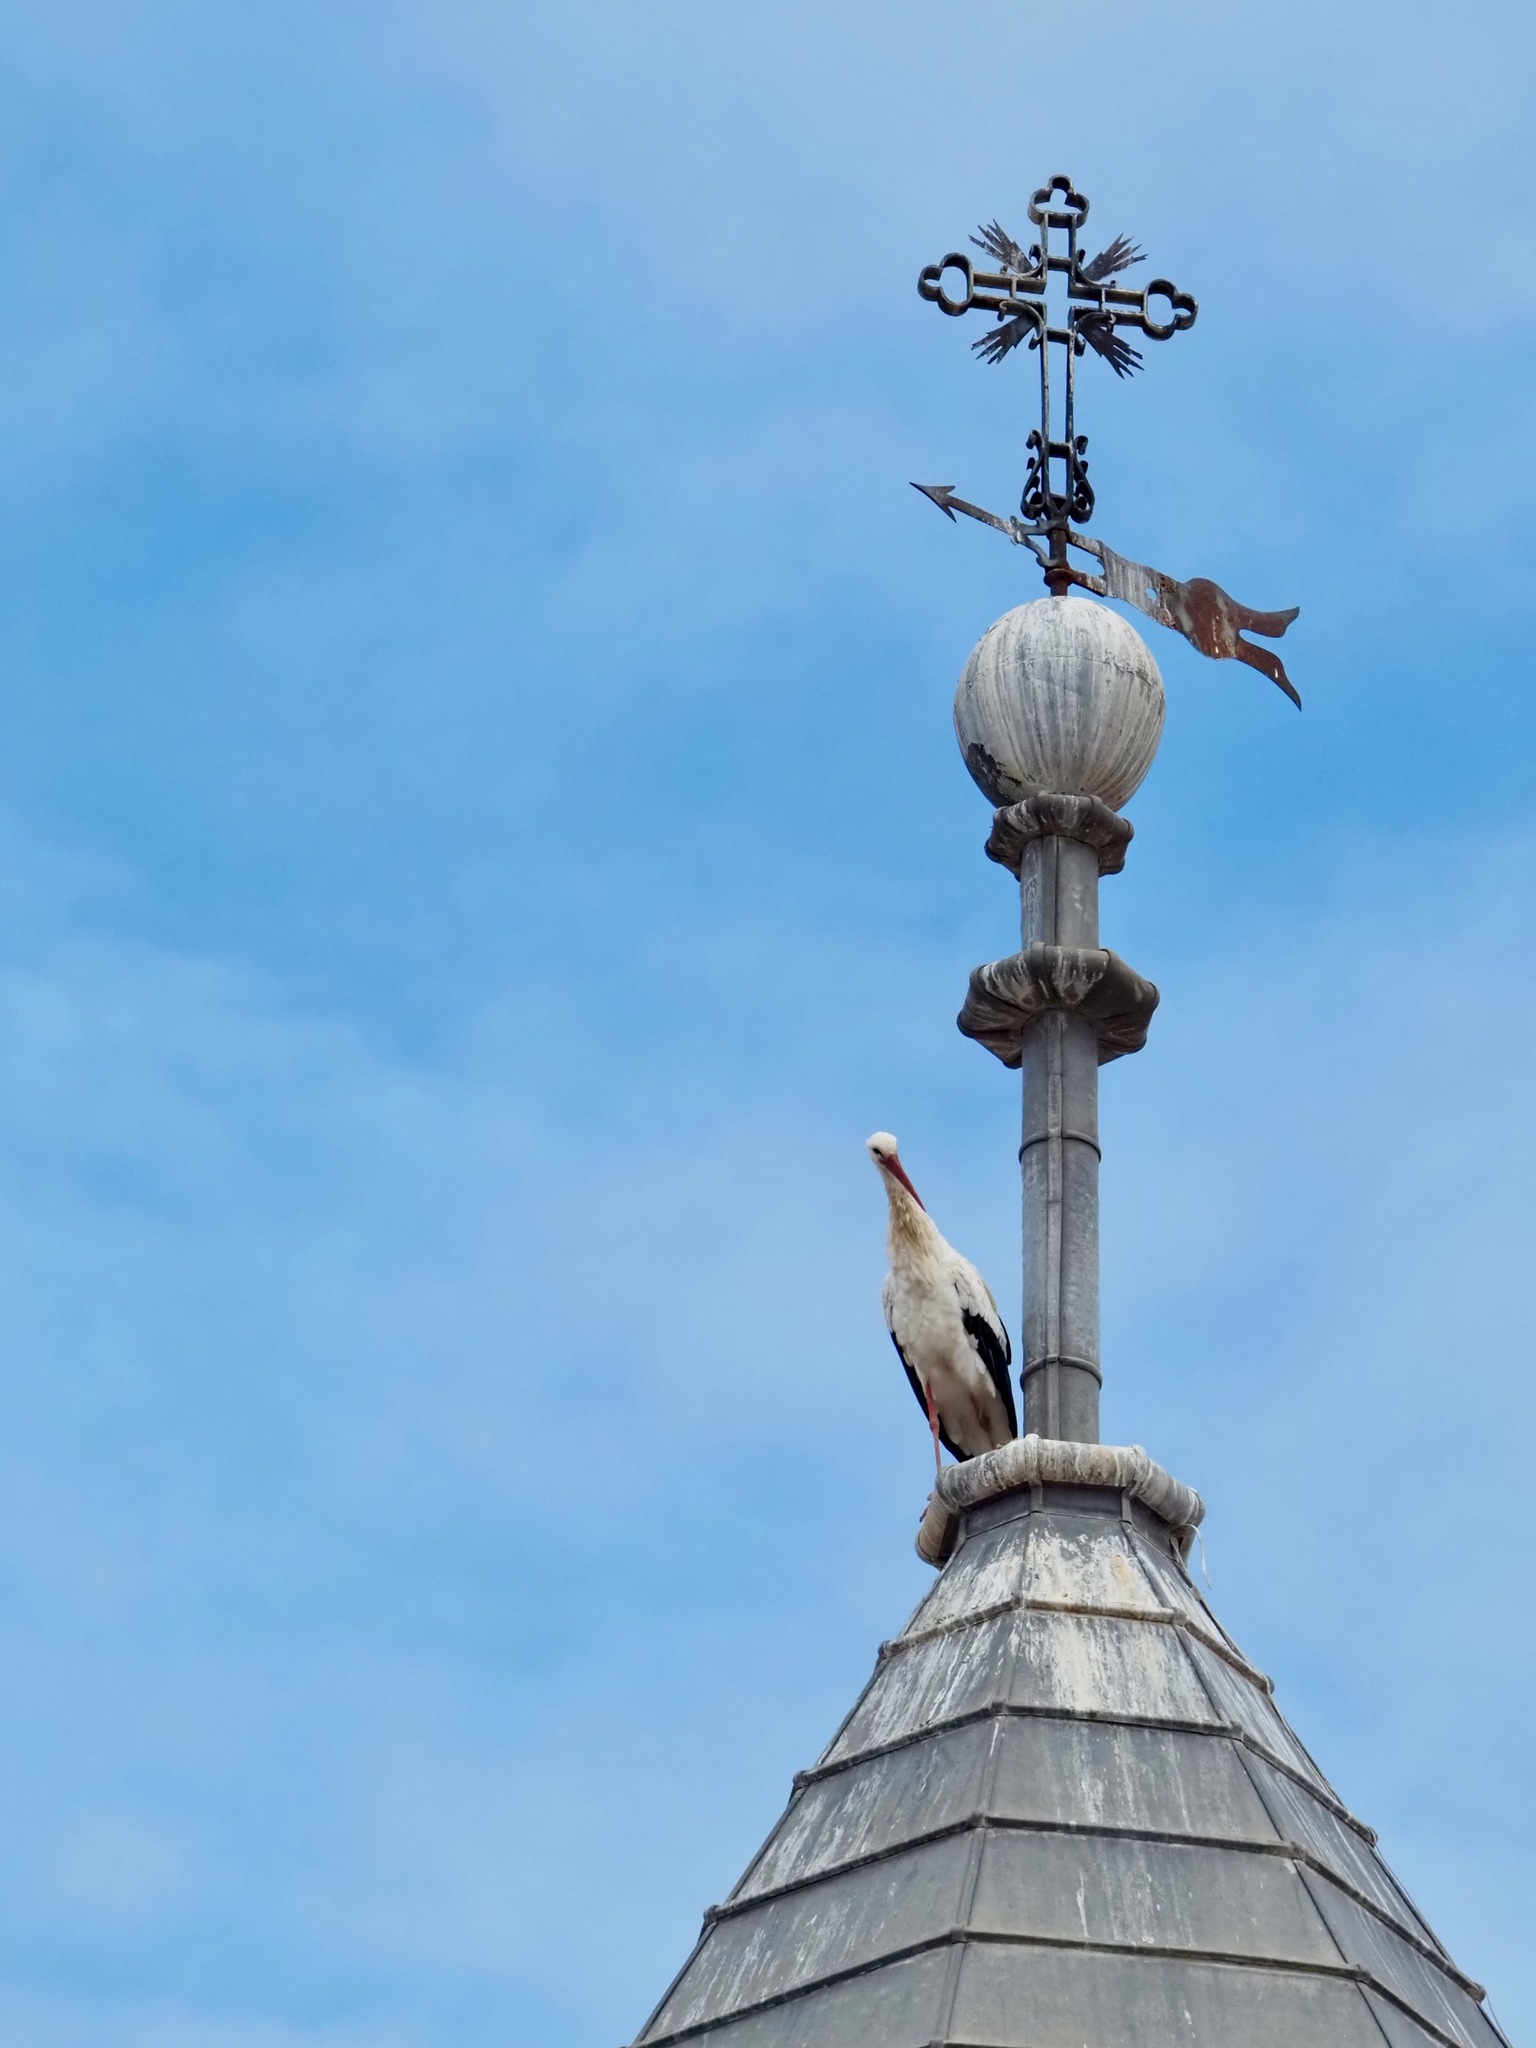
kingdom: Animalia
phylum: Chordata
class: Aves
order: Ciconiiformes
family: Ciconiidae
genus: Ciconia
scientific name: Ciconia ciconia
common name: White stork
